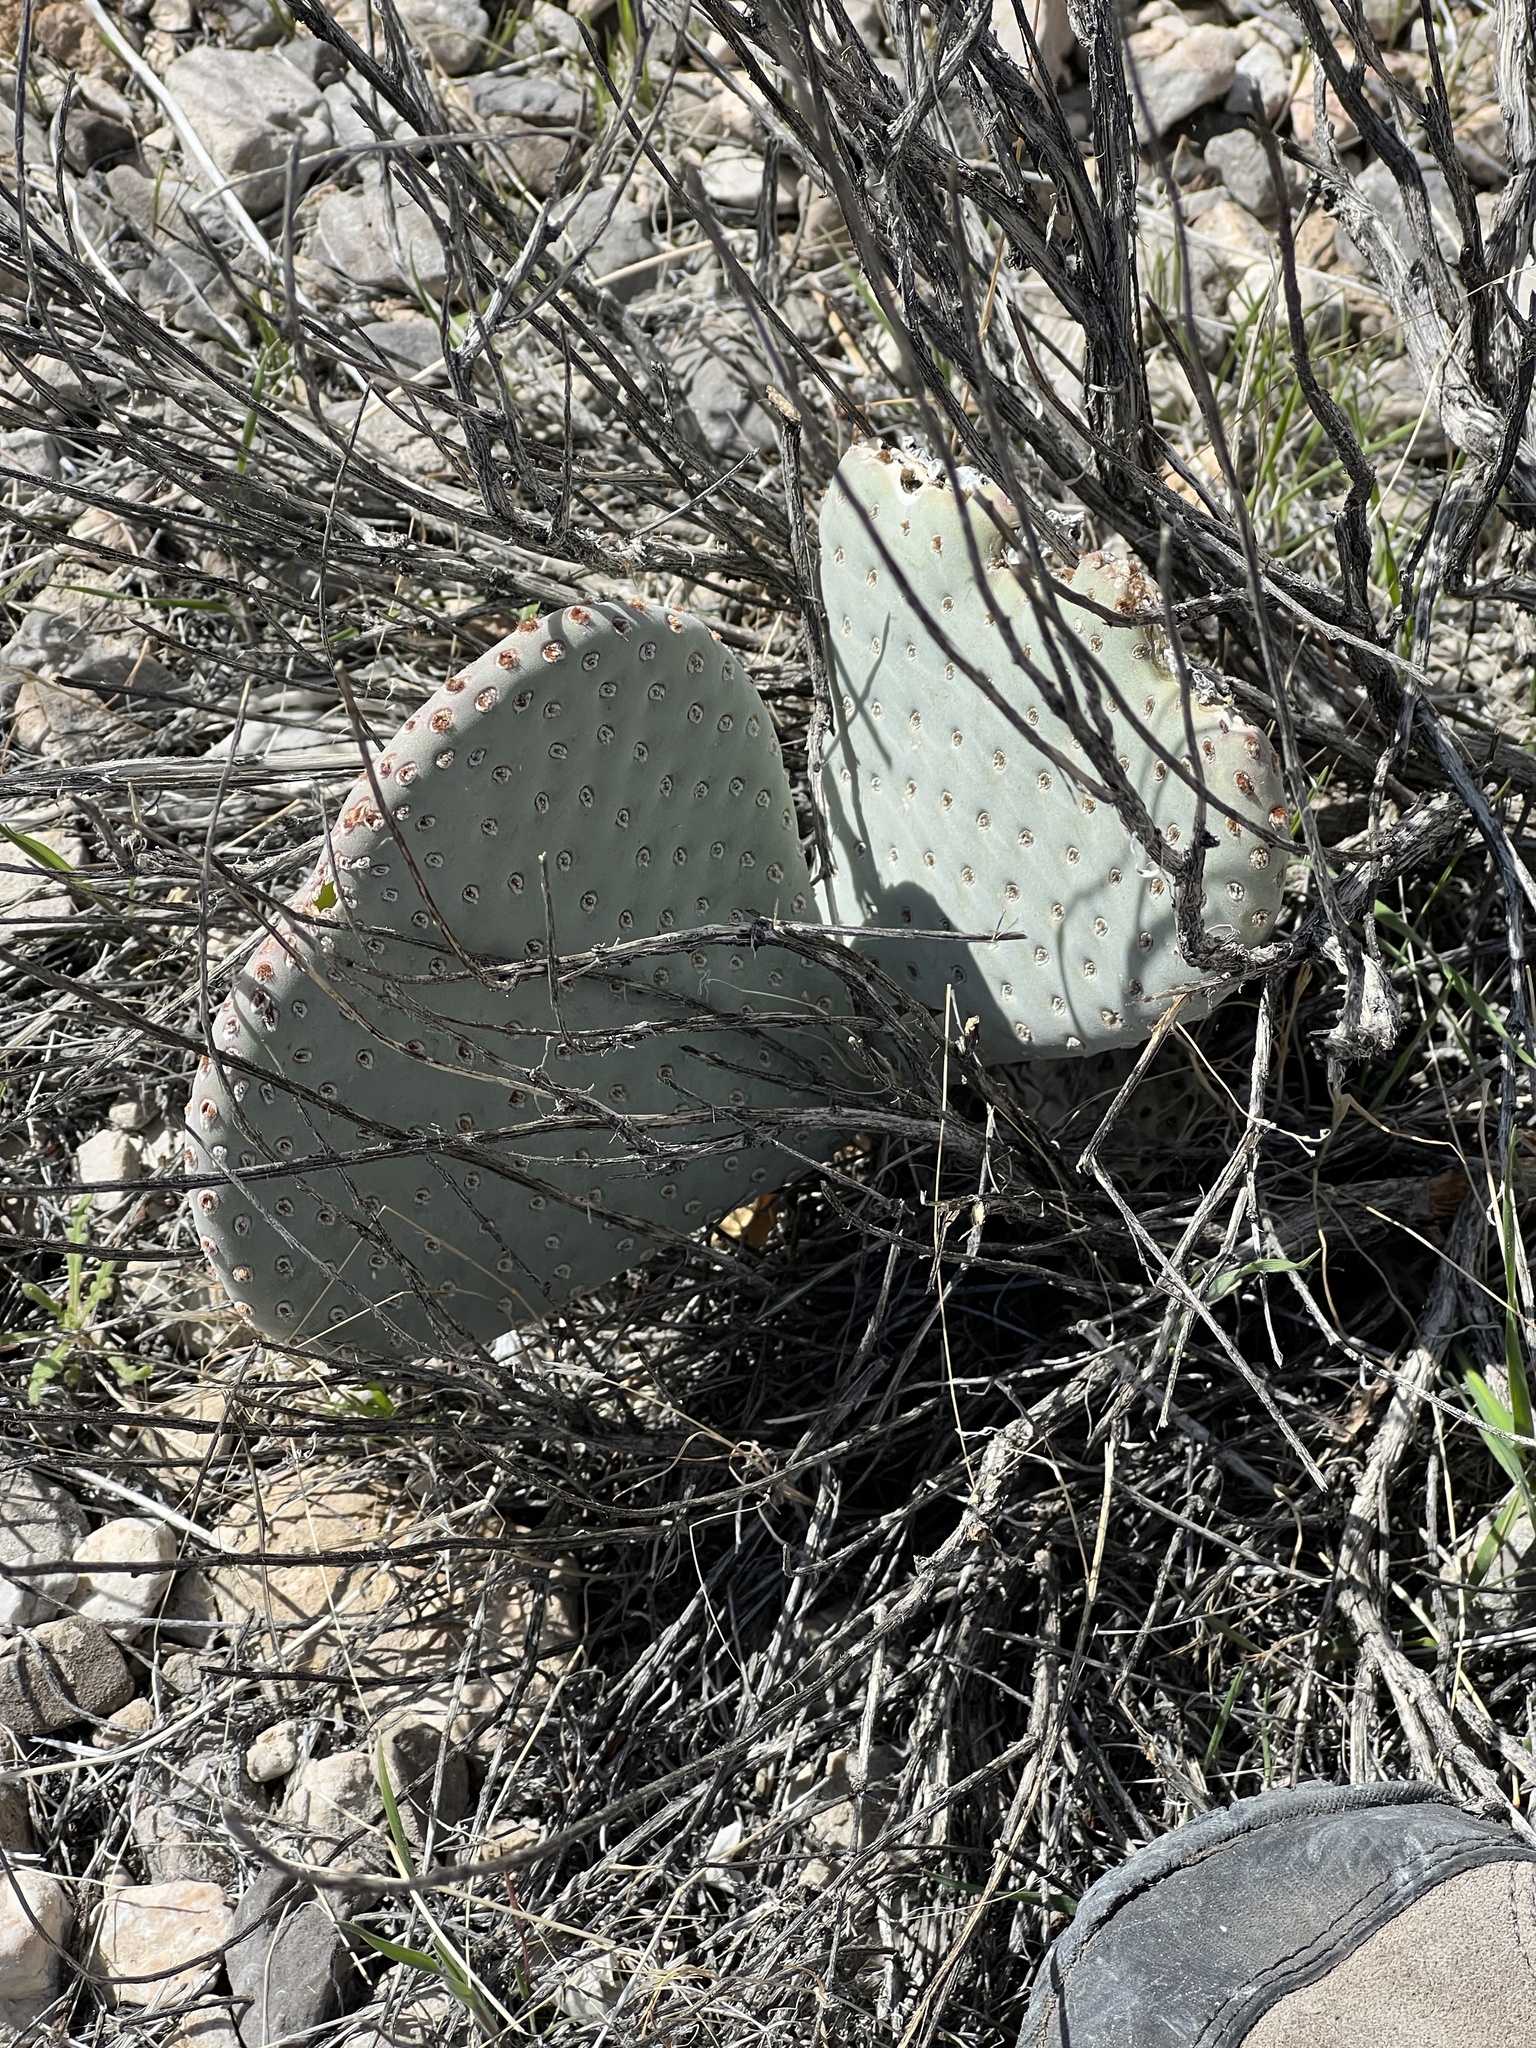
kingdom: Plantae
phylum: Tracheophyta
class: Magnoliopsida
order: Caryophyllales
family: Cactaceae
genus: Opuntia
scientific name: Opuntia basilaris
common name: Beavertail prickly-pear
